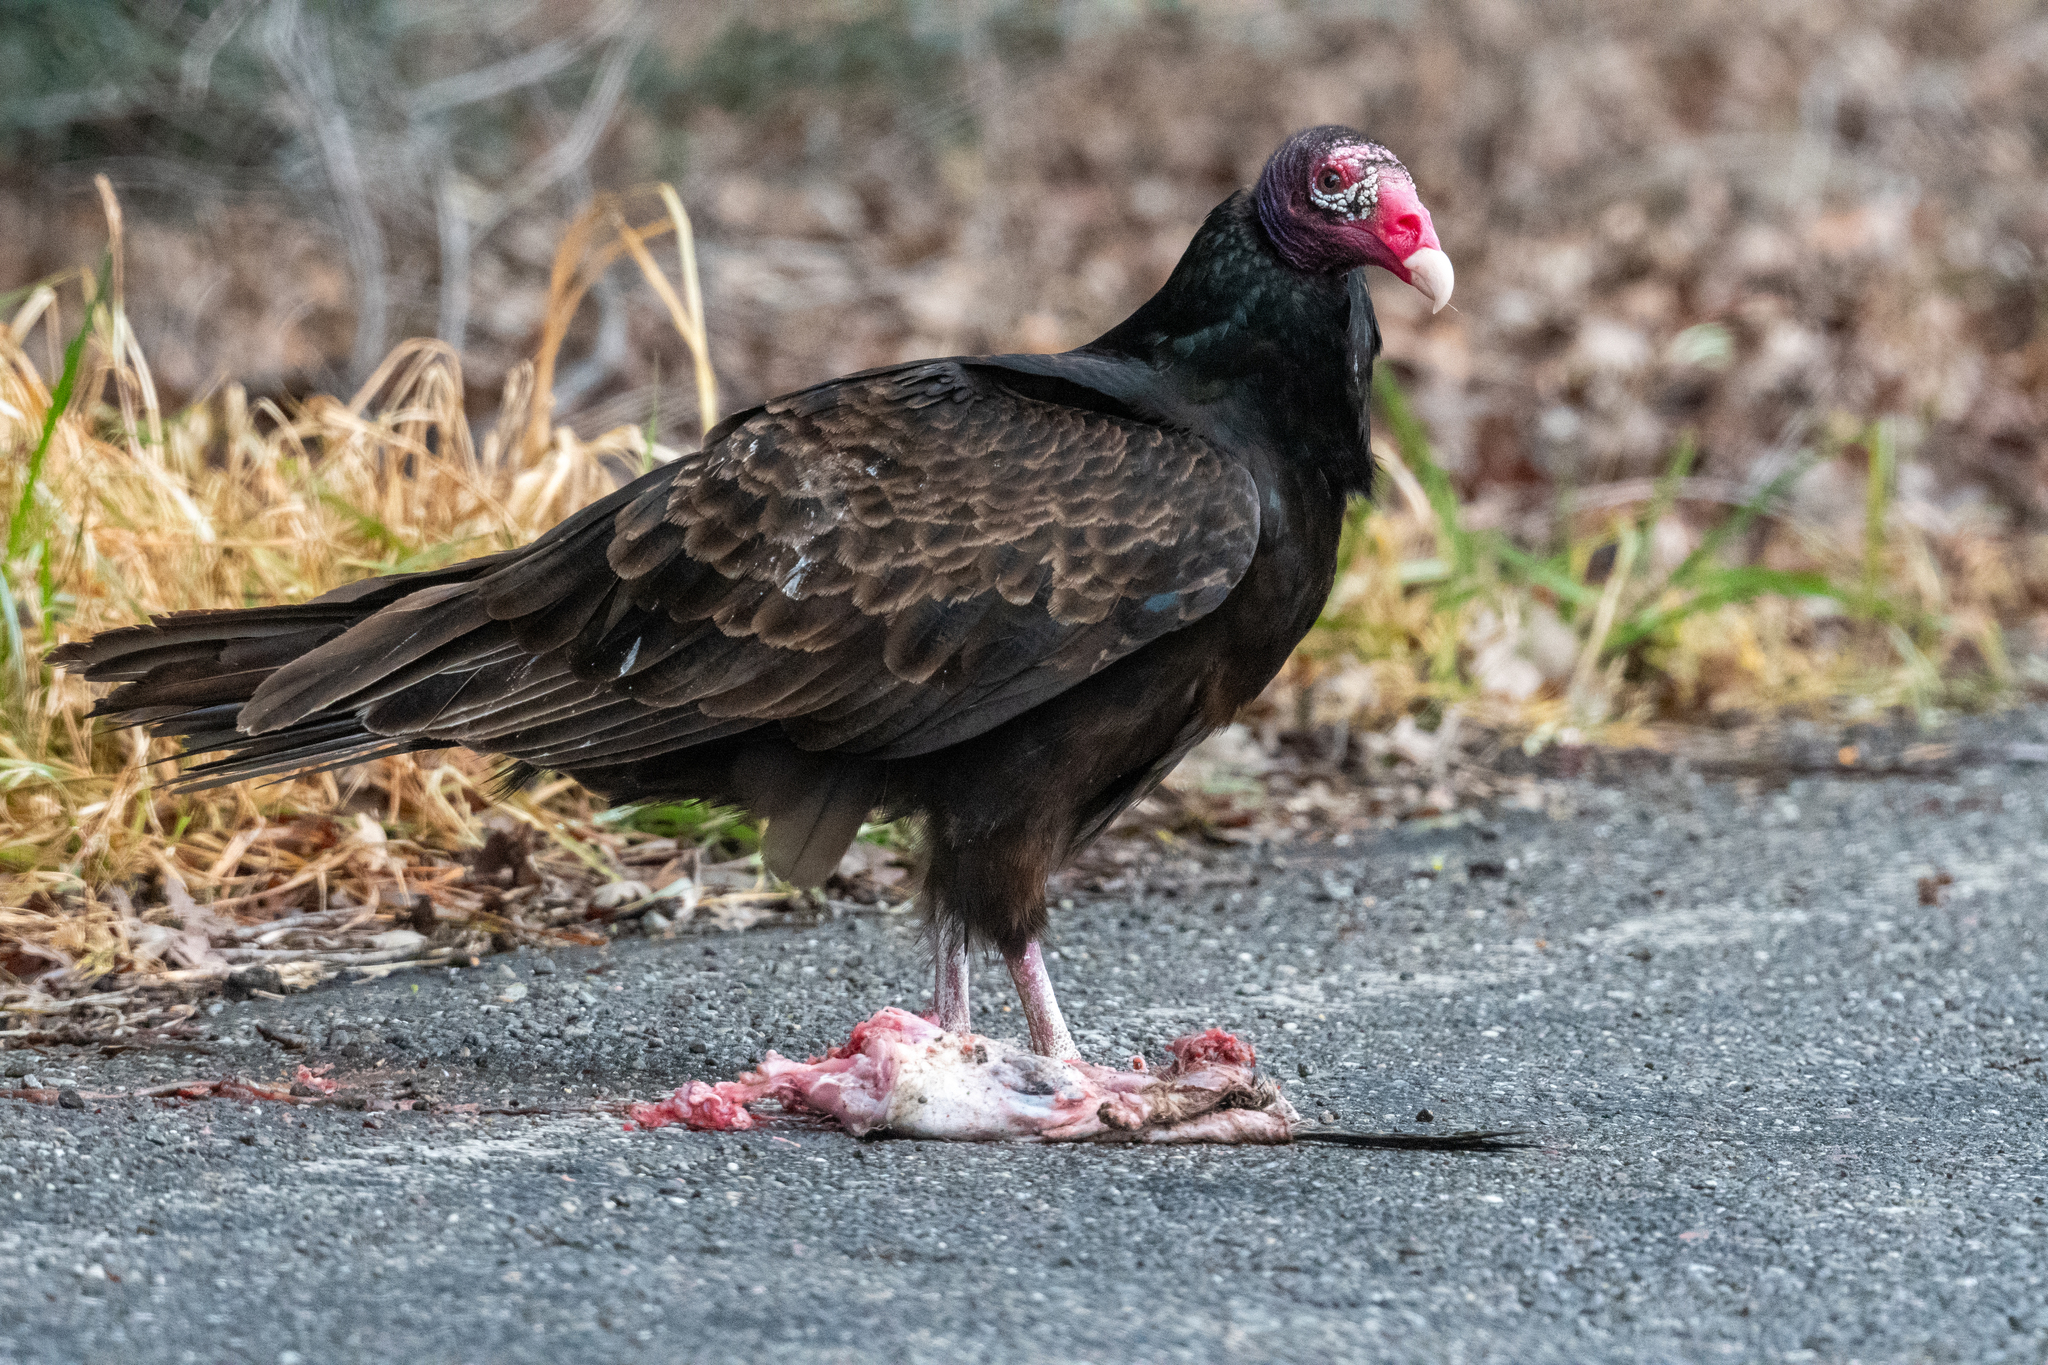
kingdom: Animalia
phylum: Chordata
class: Aves
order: Accipitriformes
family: Cathartidae
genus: Cathartes
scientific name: Cathartes aura
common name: Turkey vulture
